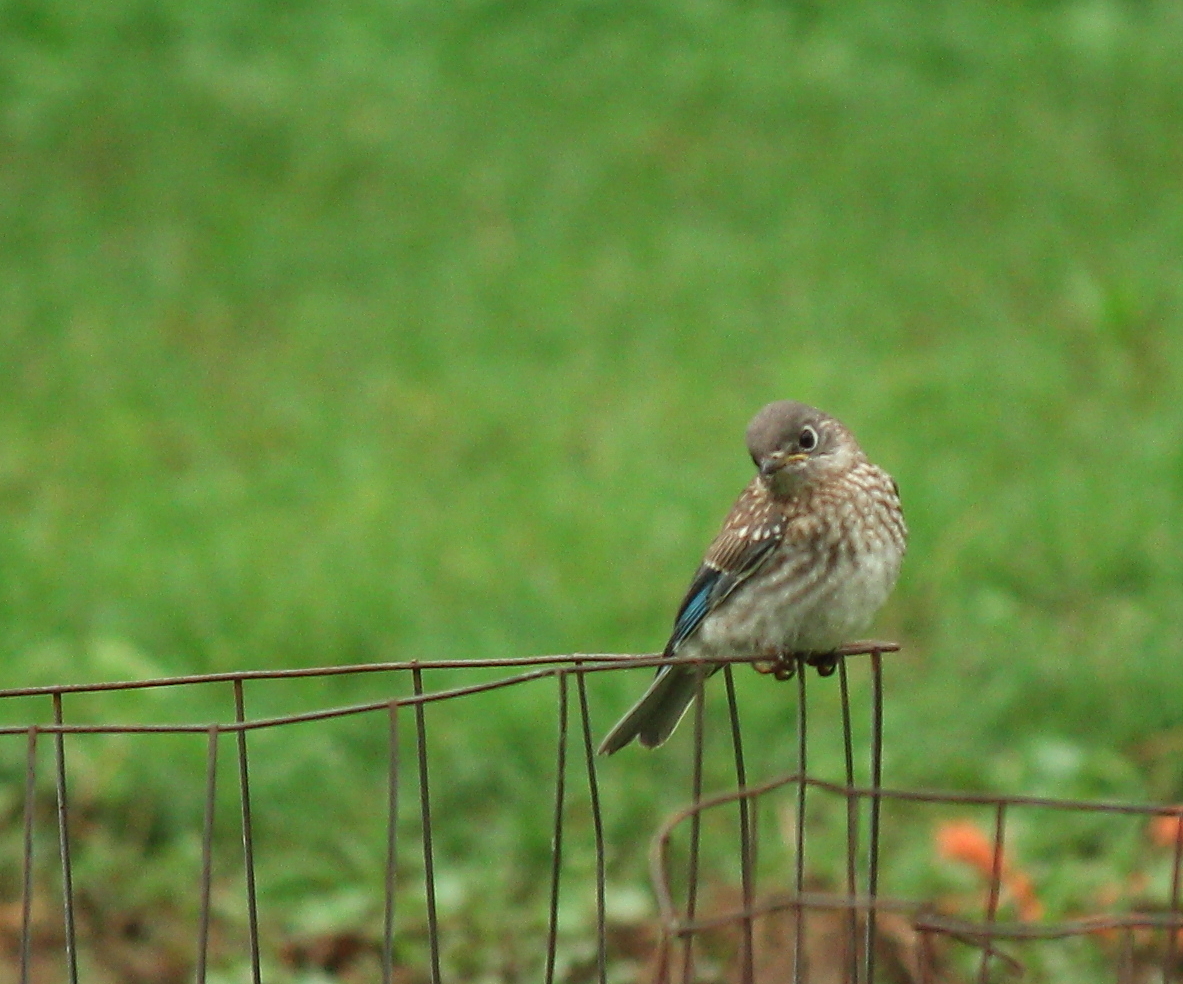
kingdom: Animalia
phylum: Chordata
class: Aves
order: Passeriformes
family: Turdidae
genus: Sialia
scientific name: Sialia sialis
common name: Eastern bluebird
